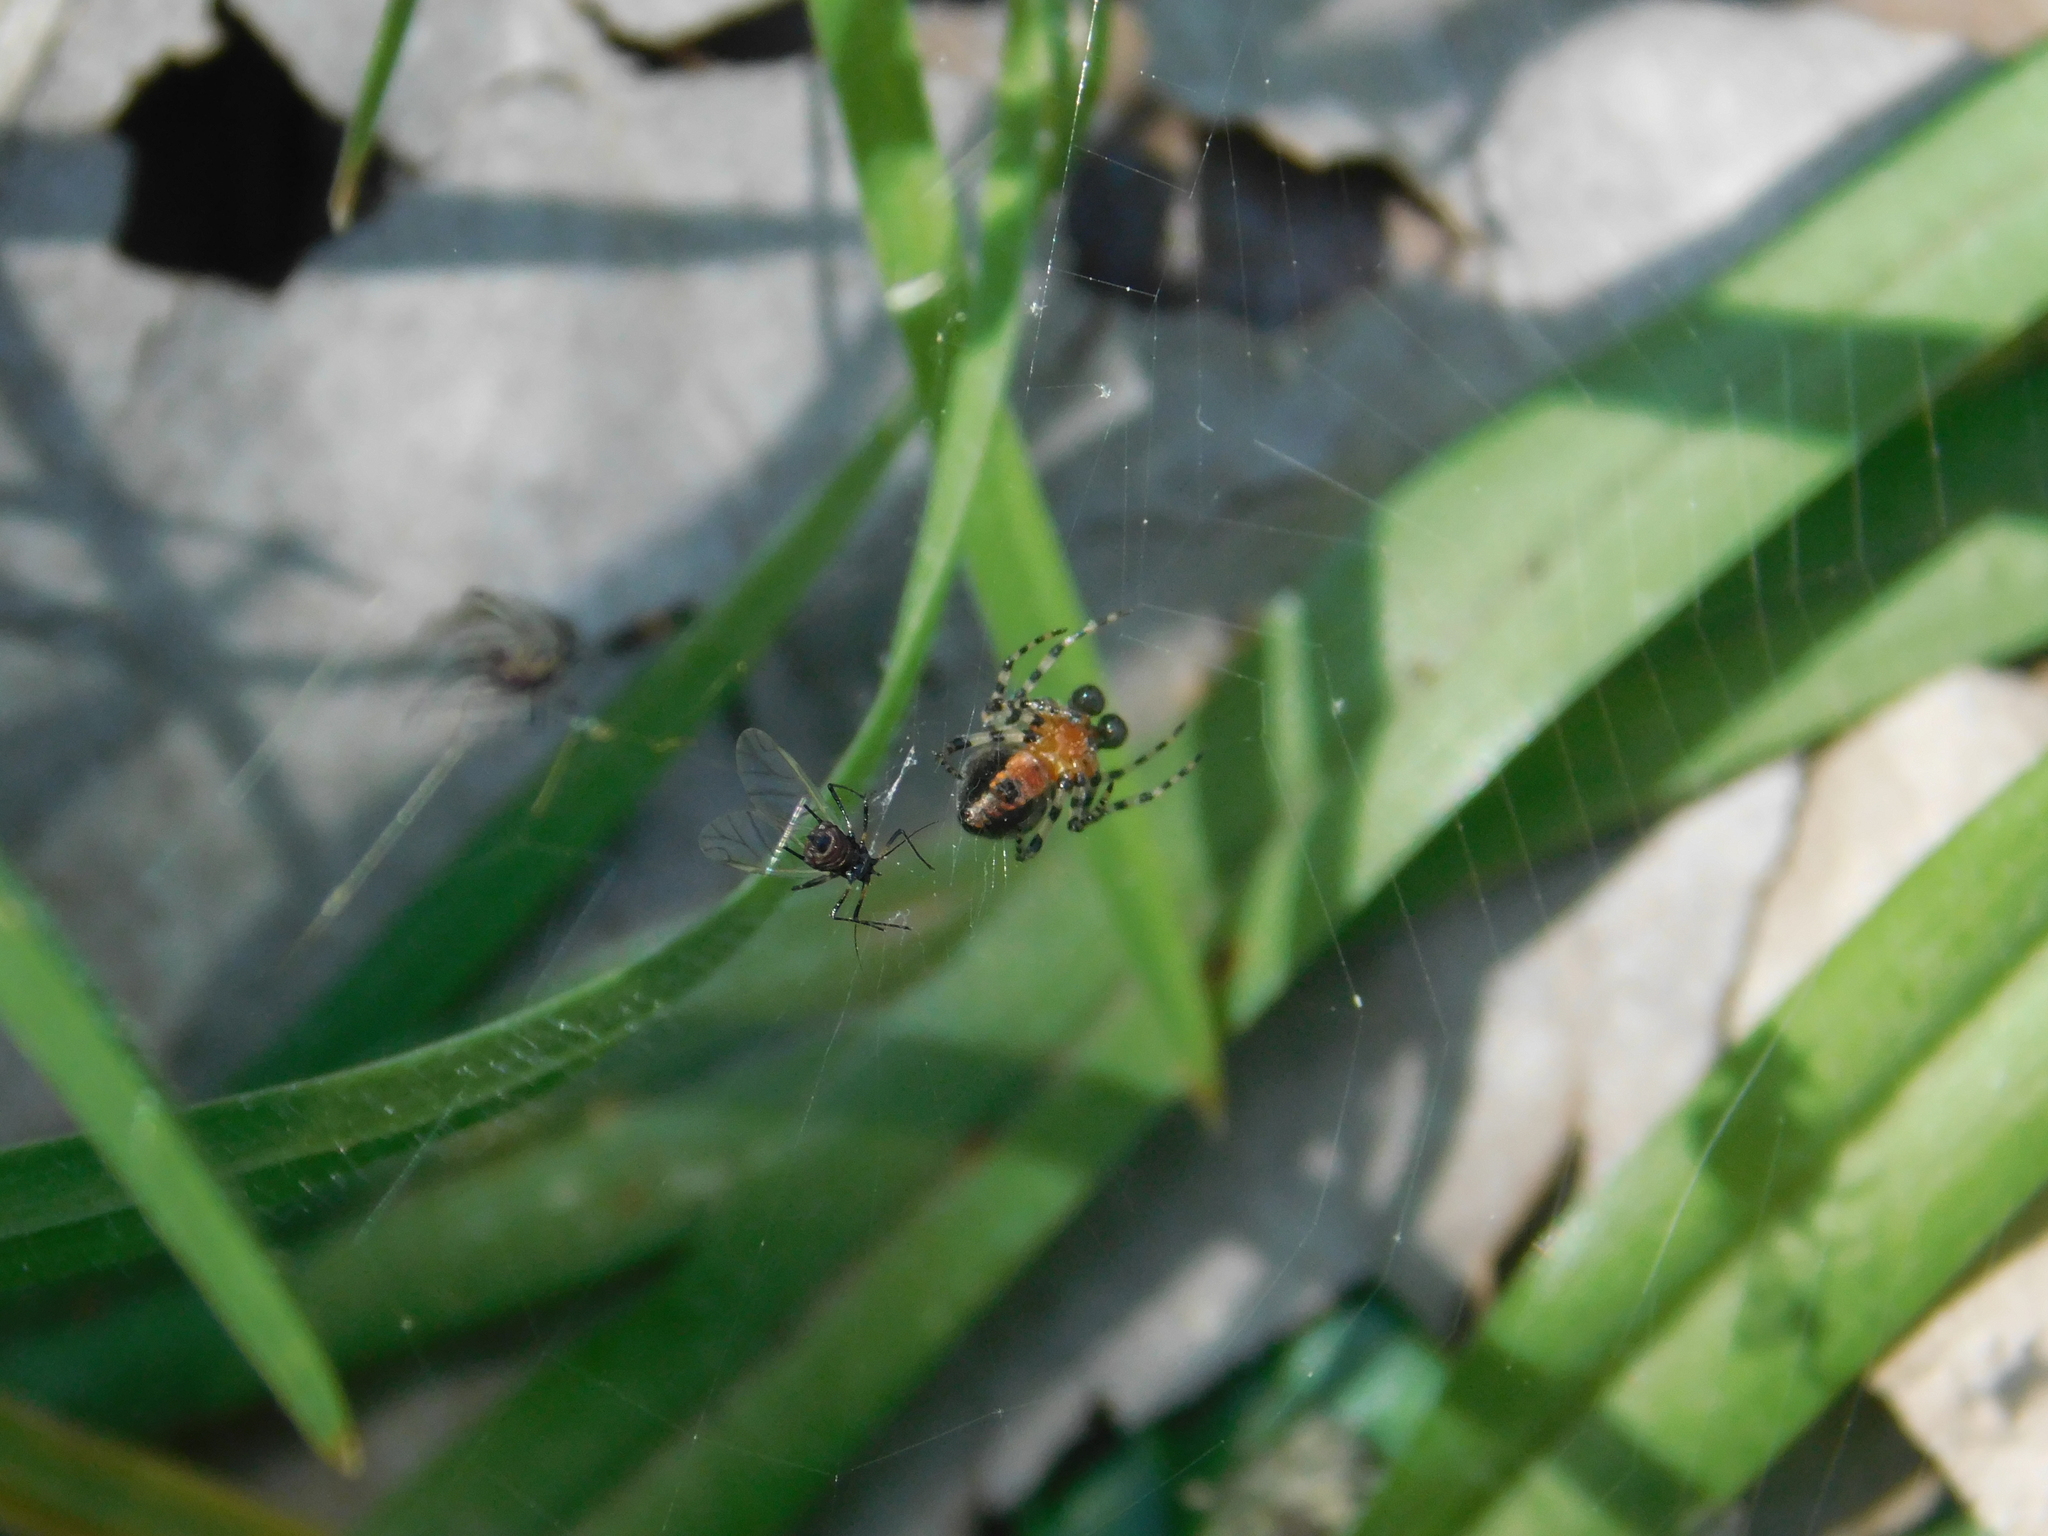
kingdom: Animalia
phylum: Arthropoda
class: Arachnida
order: Araneae
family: Araneidae
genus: Alpaida
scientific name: Alpaida gallardoi
